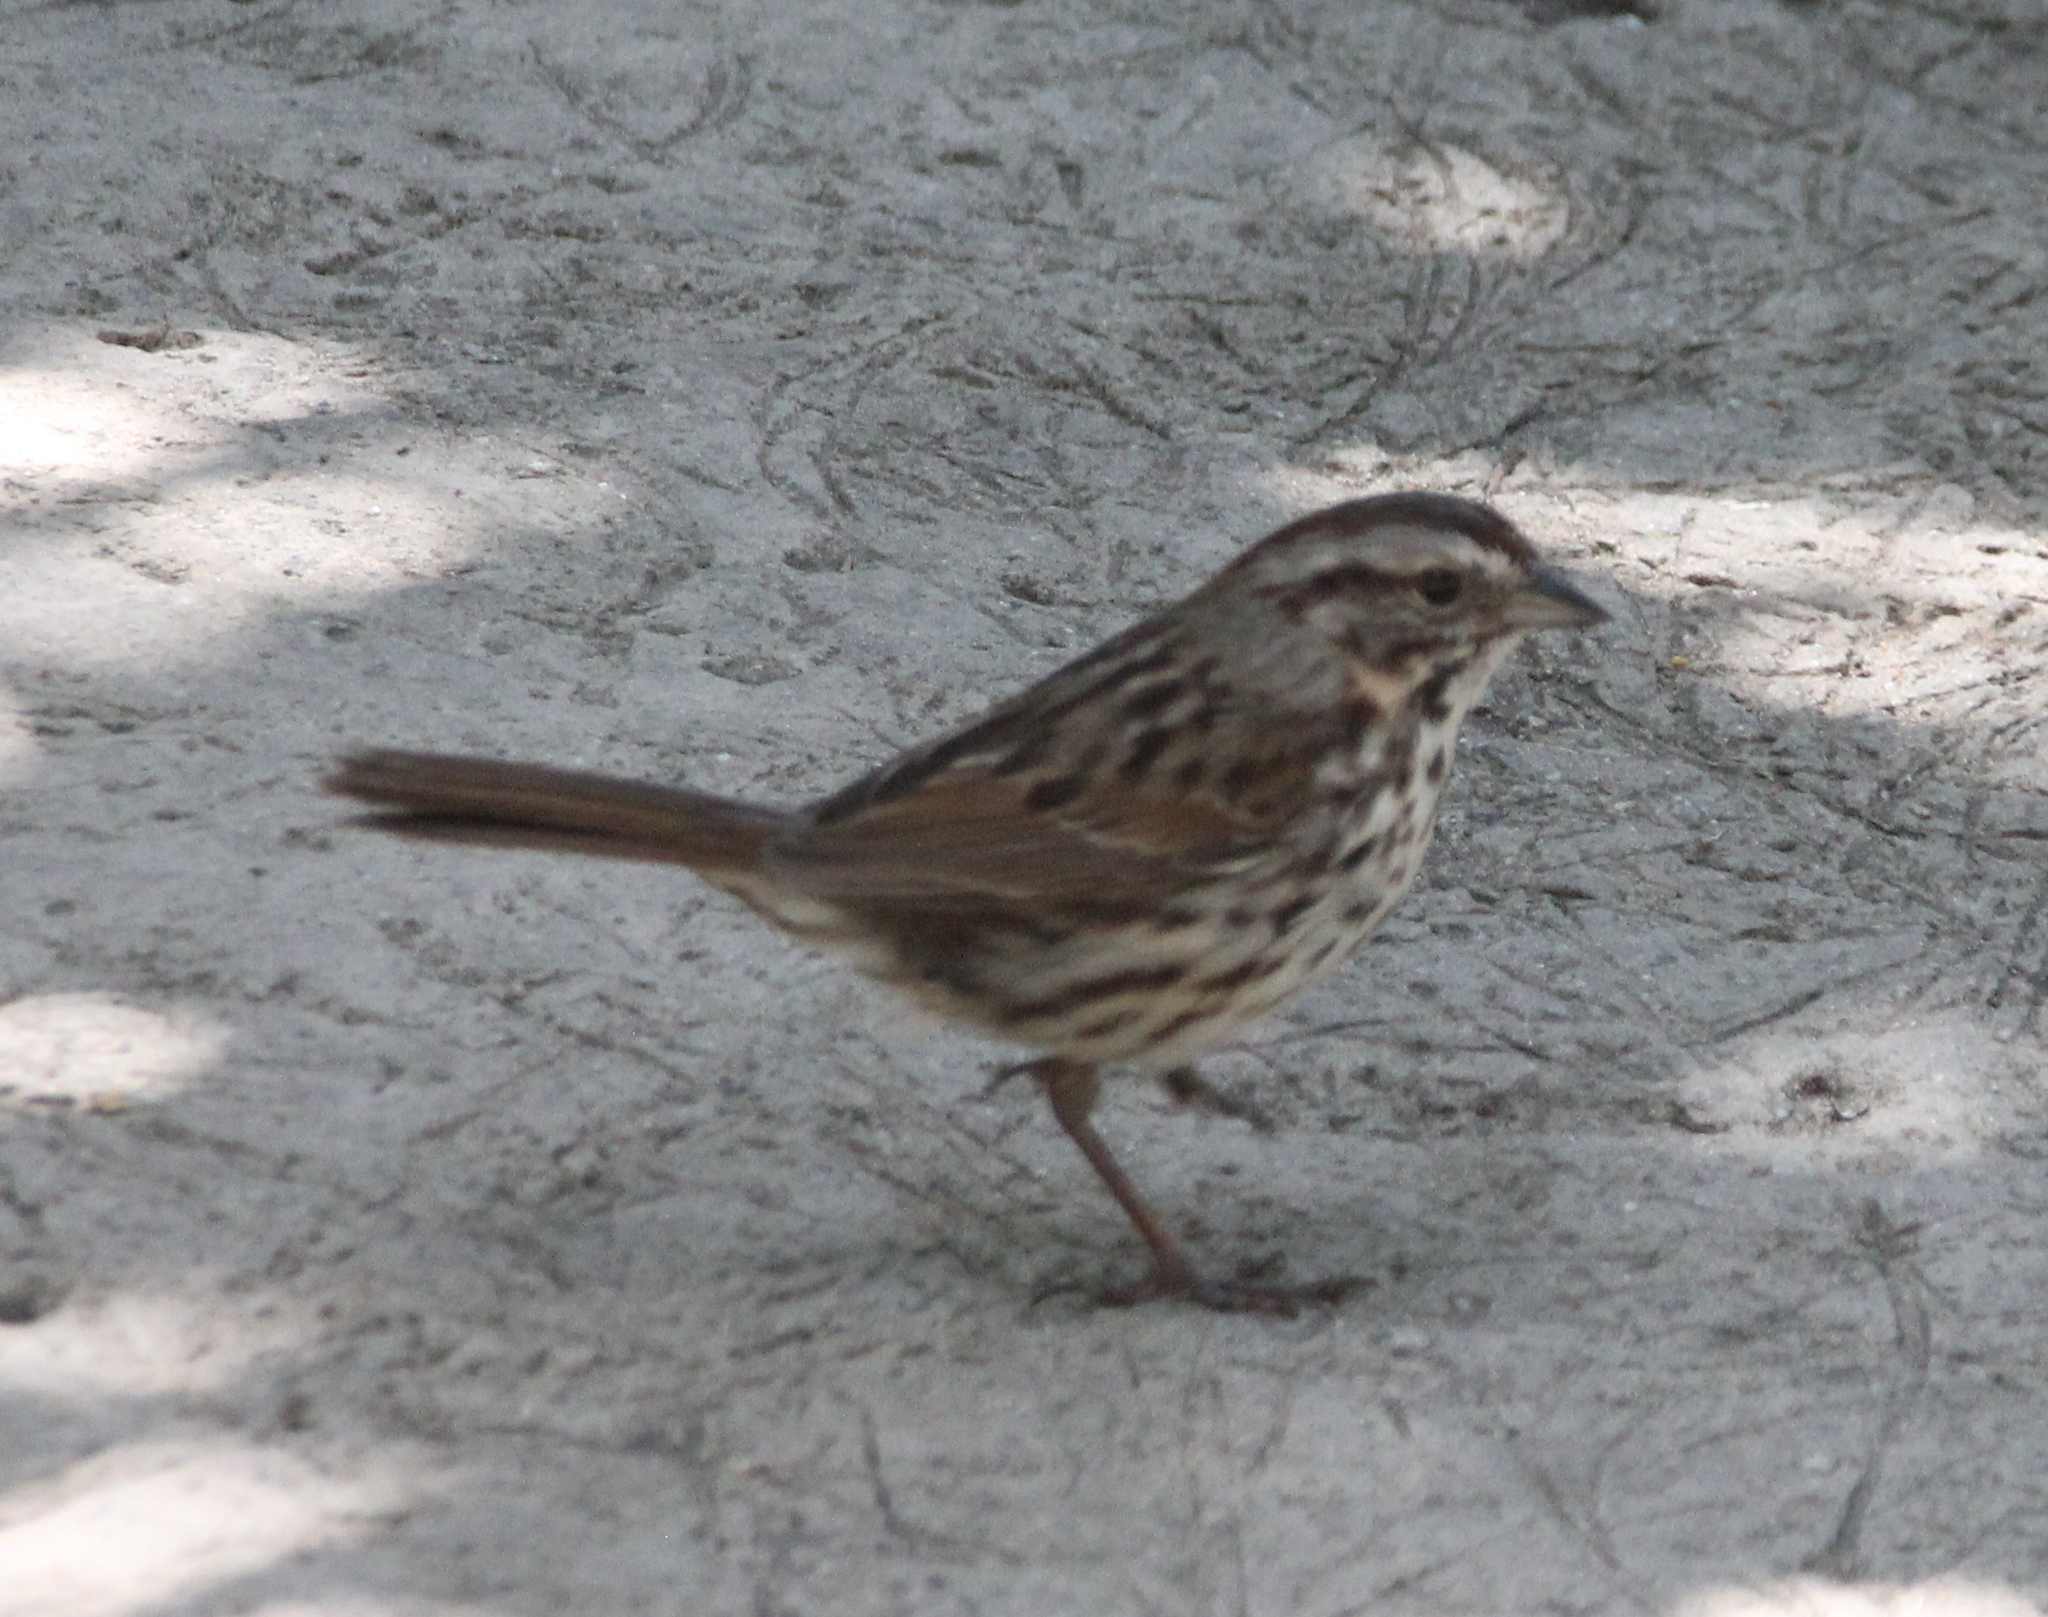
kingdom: Animalia
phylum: Chordata
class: Aves
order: Passeriformes
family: Passerellidae
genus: Melospiza
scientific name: Melospiza melodia
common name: Song sparrow
